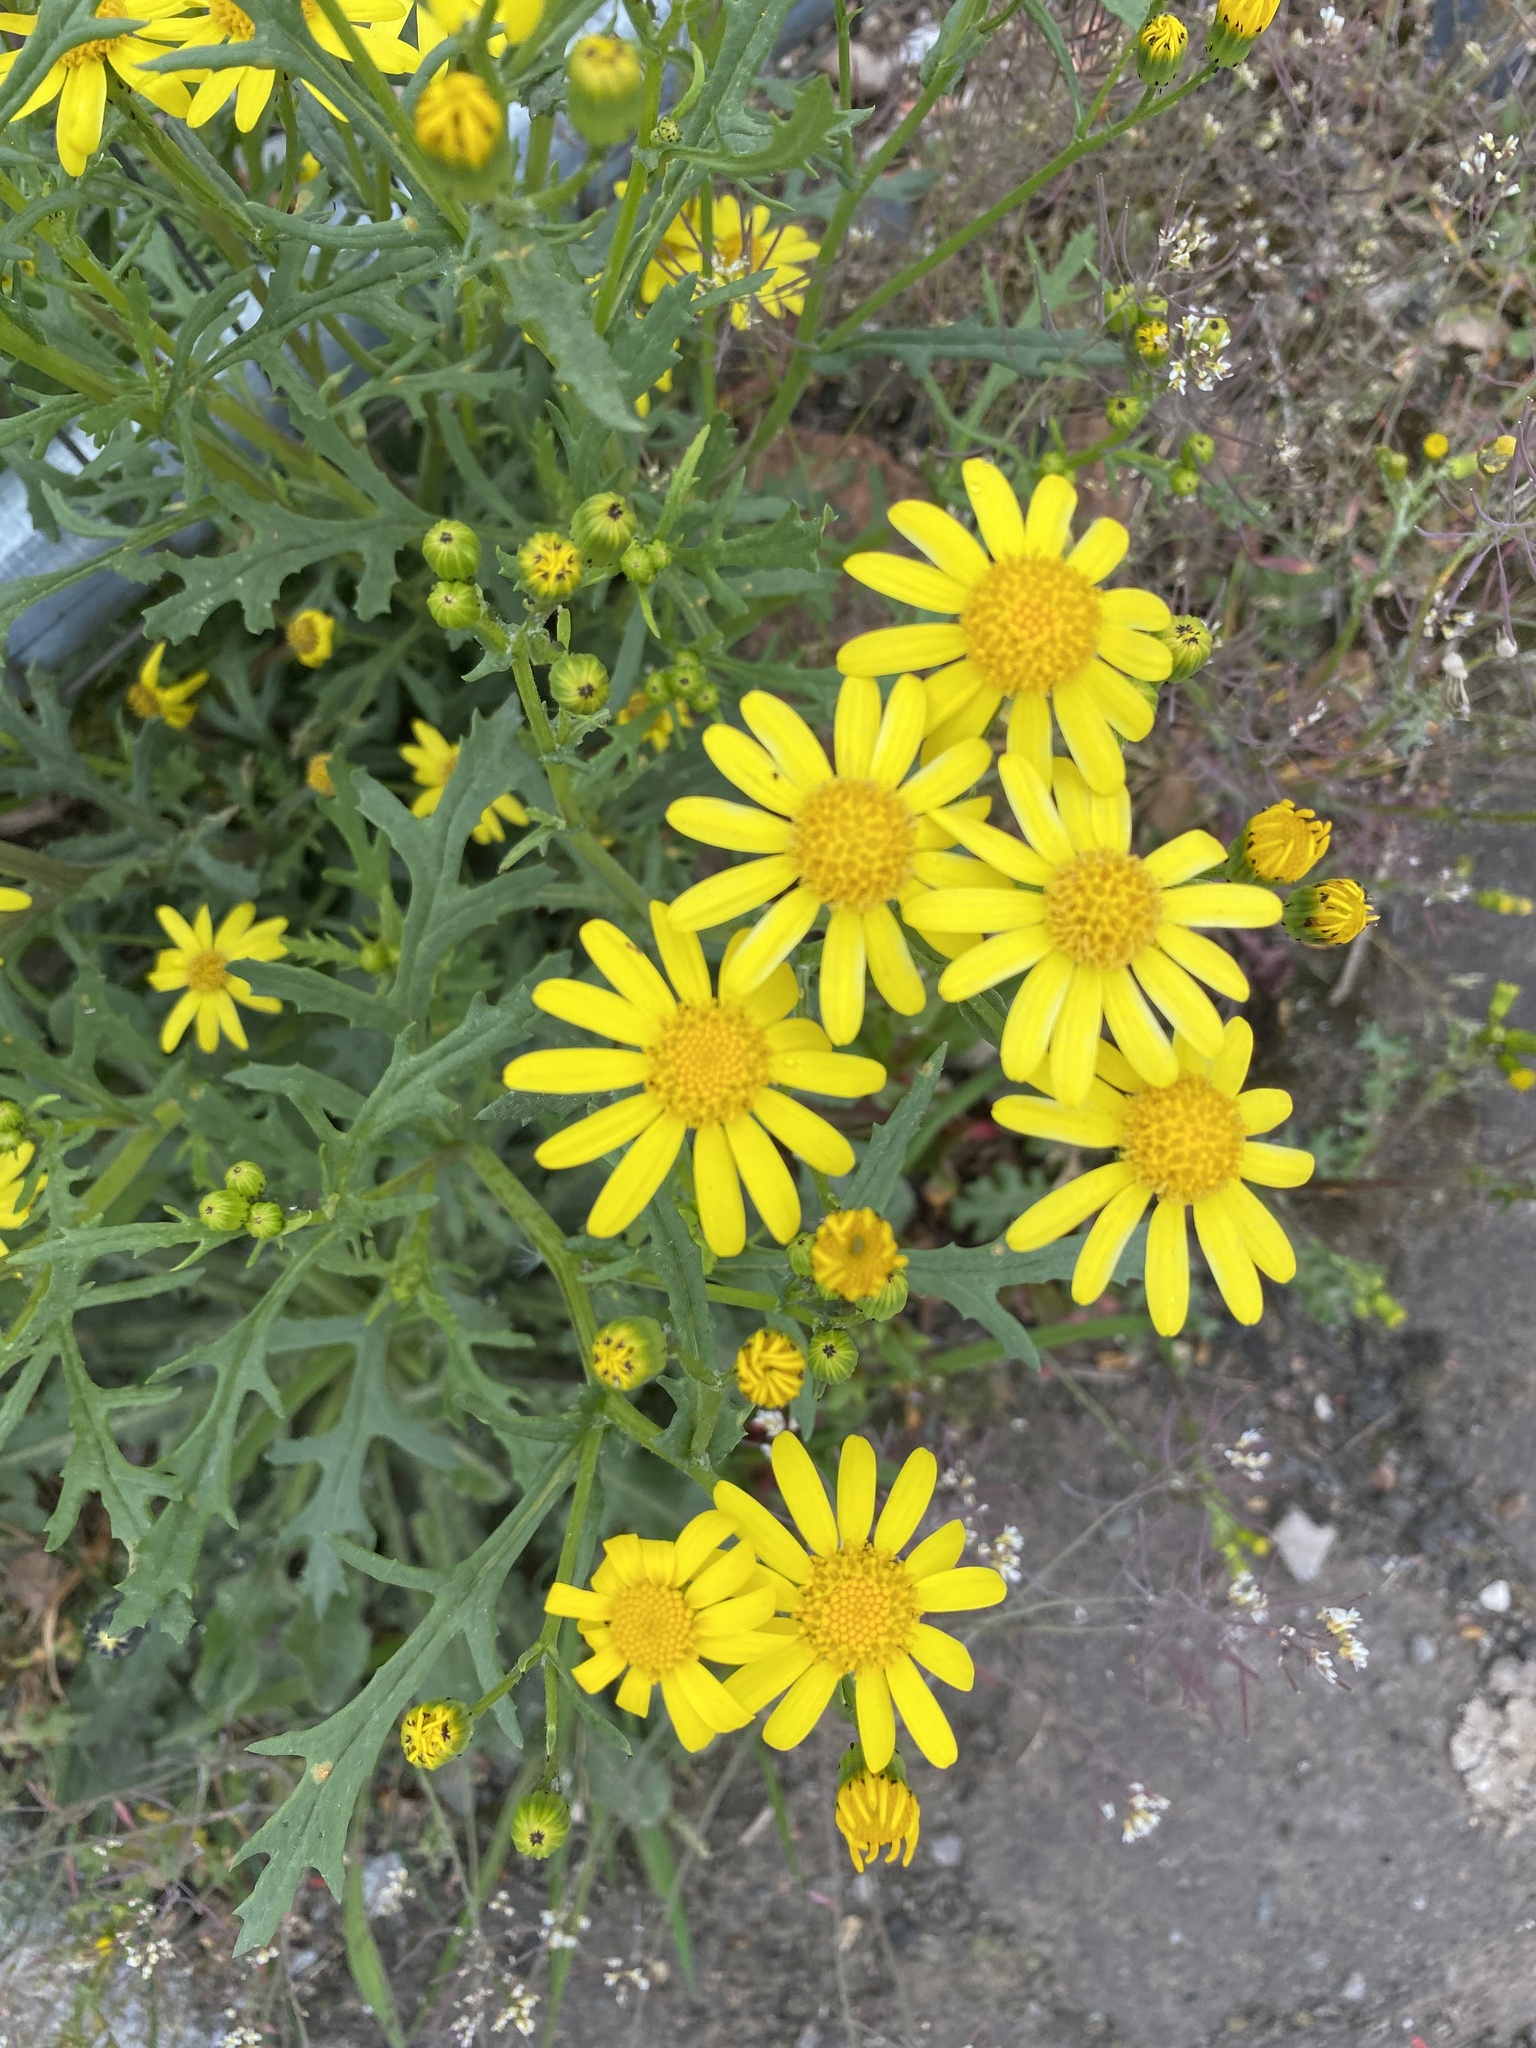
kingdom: Plantae
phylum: Tracheophyta
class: Magnoliopsida
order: Asterales
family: Asteraceae
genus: Senecio
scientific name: Senecio squalidus
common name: Oxford ragwort
